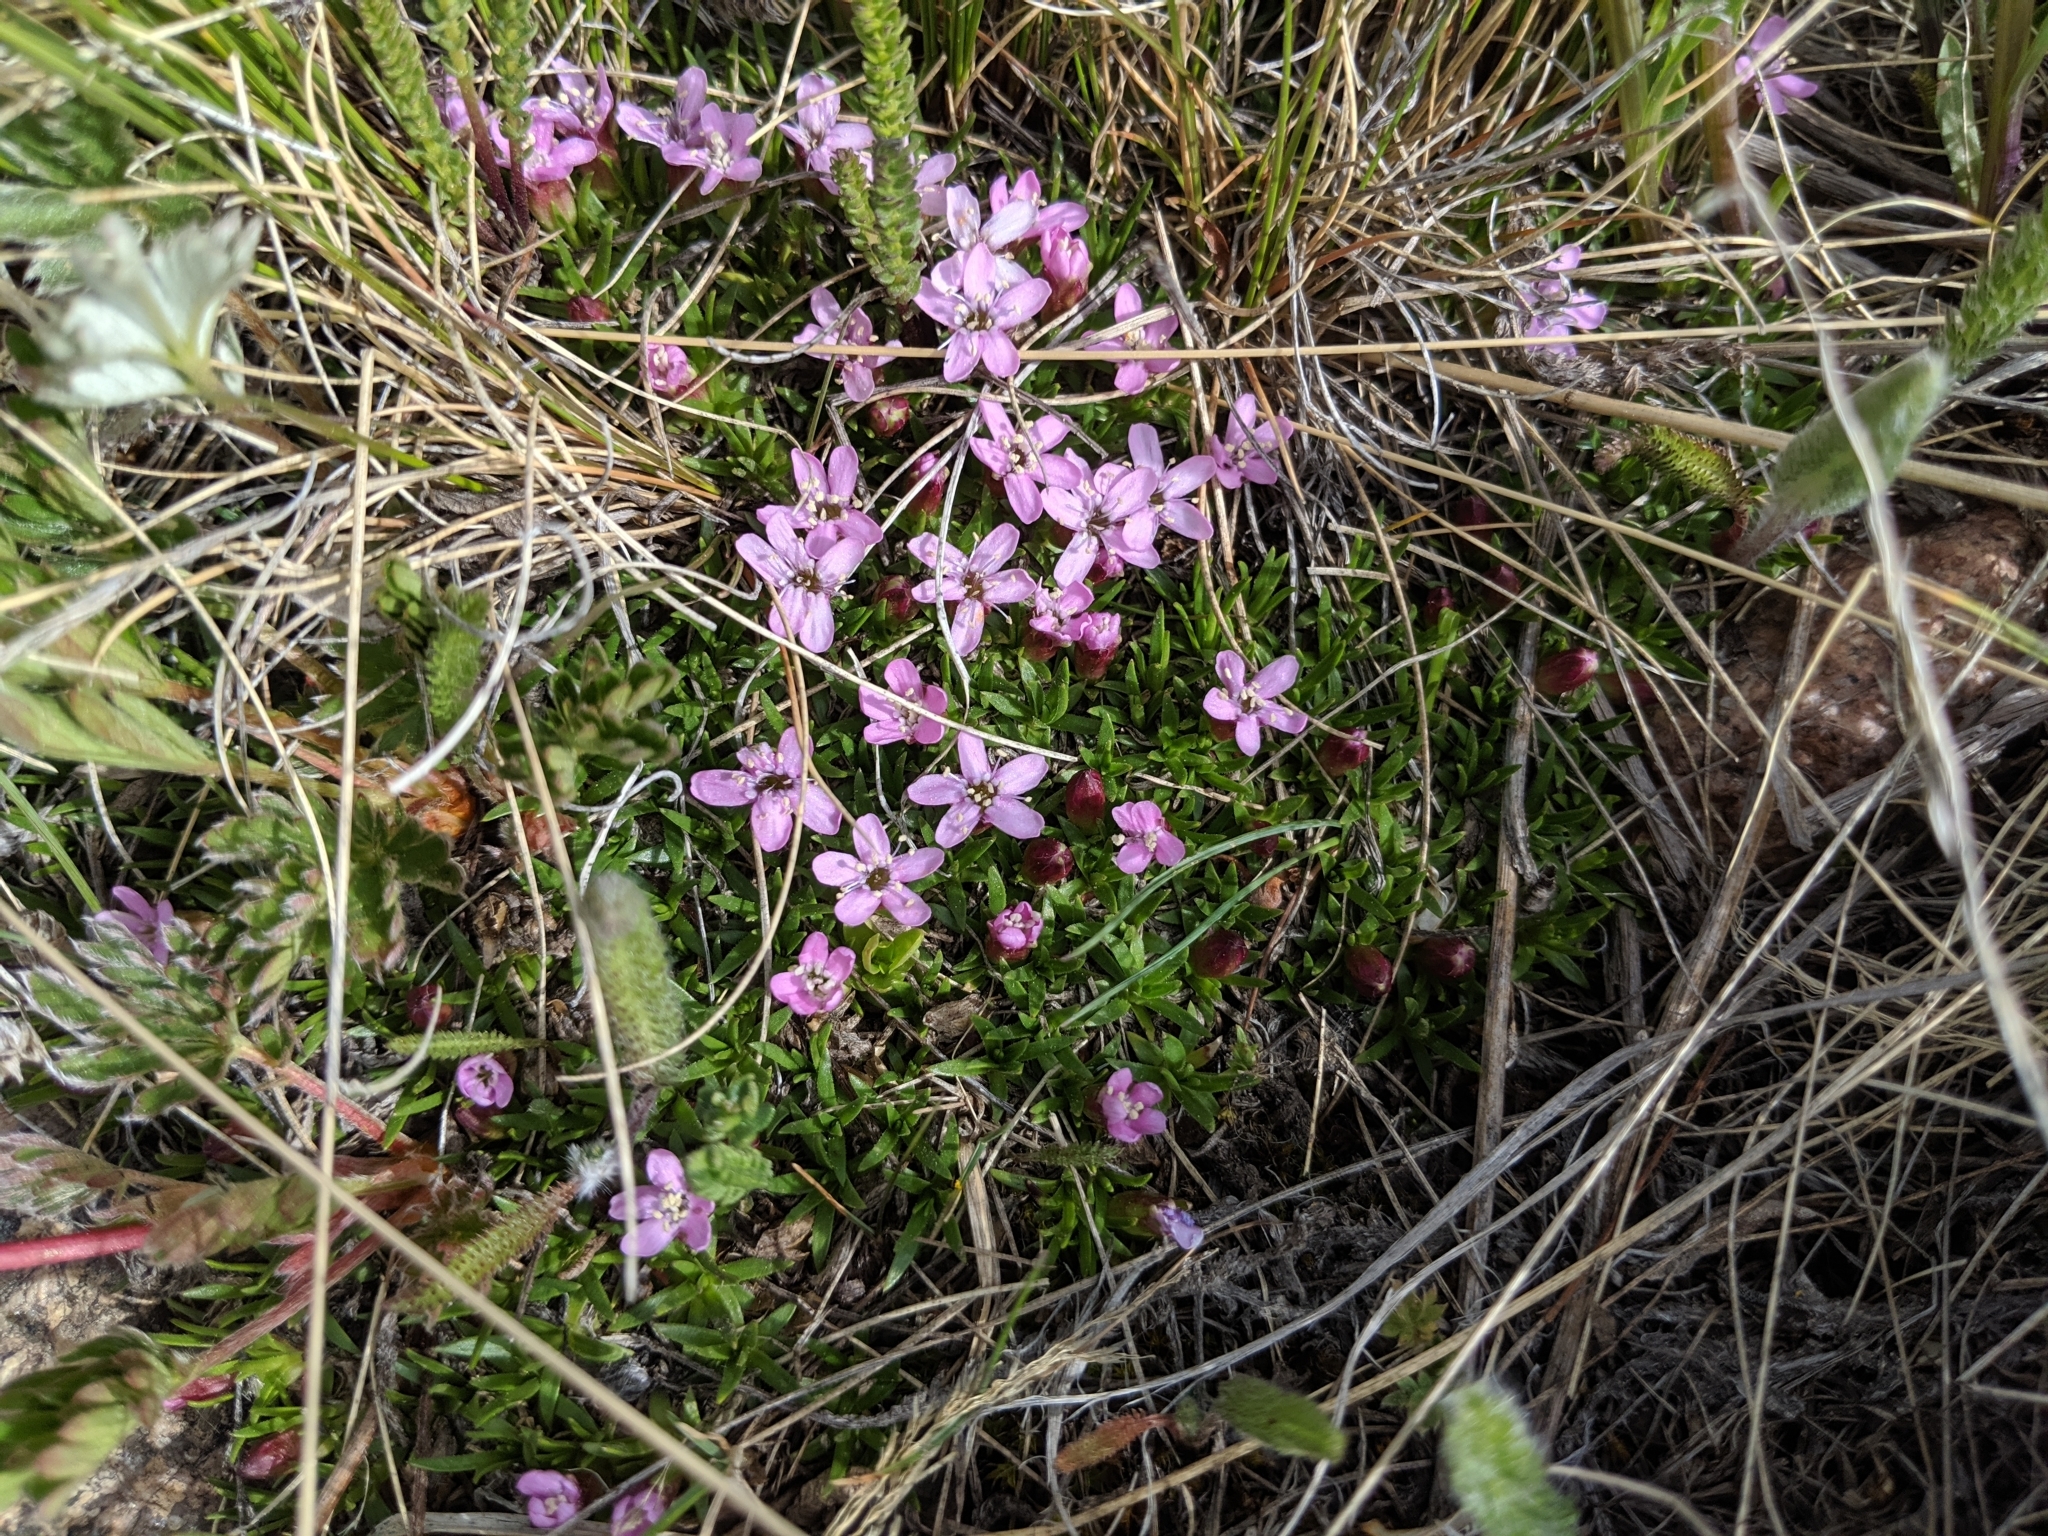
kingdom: Plantae
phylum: Tracheophyta
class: Magnoliopsida
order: Caryophyllales
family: Caryophyllaceae
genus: Silene
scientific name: Silene acaulis
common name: Moss campion
